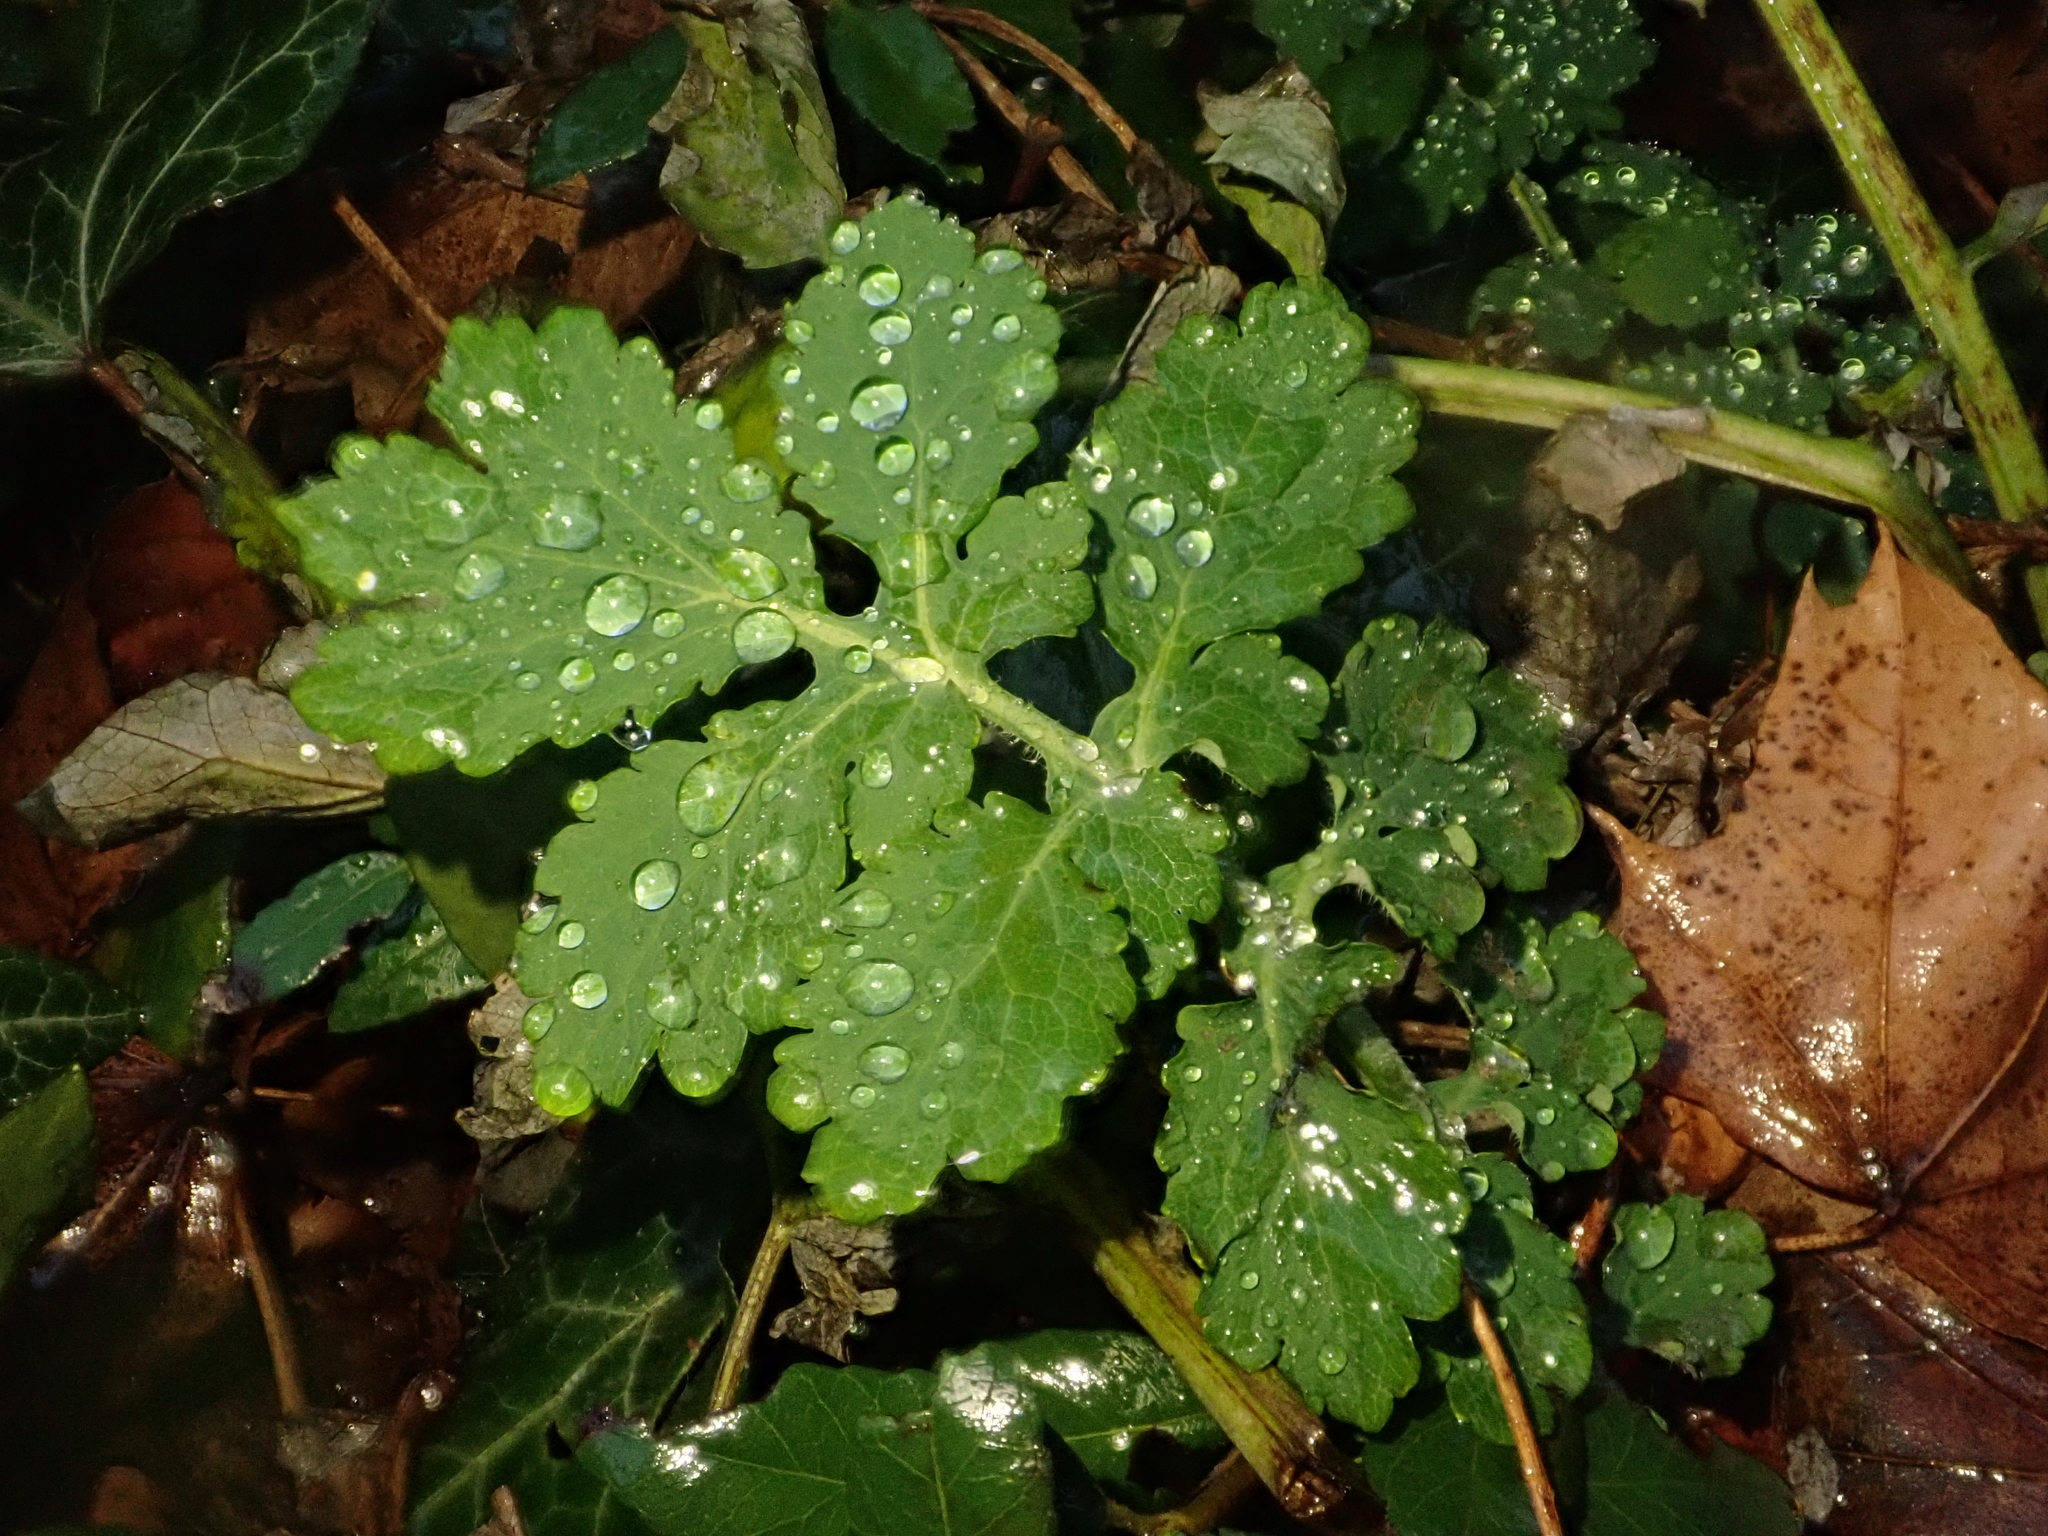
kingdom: Plantae
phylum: Tracheophyta
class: Magnoliopsida
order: Ranunculales
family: Papaveraceae
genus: Chelidonium
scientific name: Chelidonium majus
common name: Greater celandine
